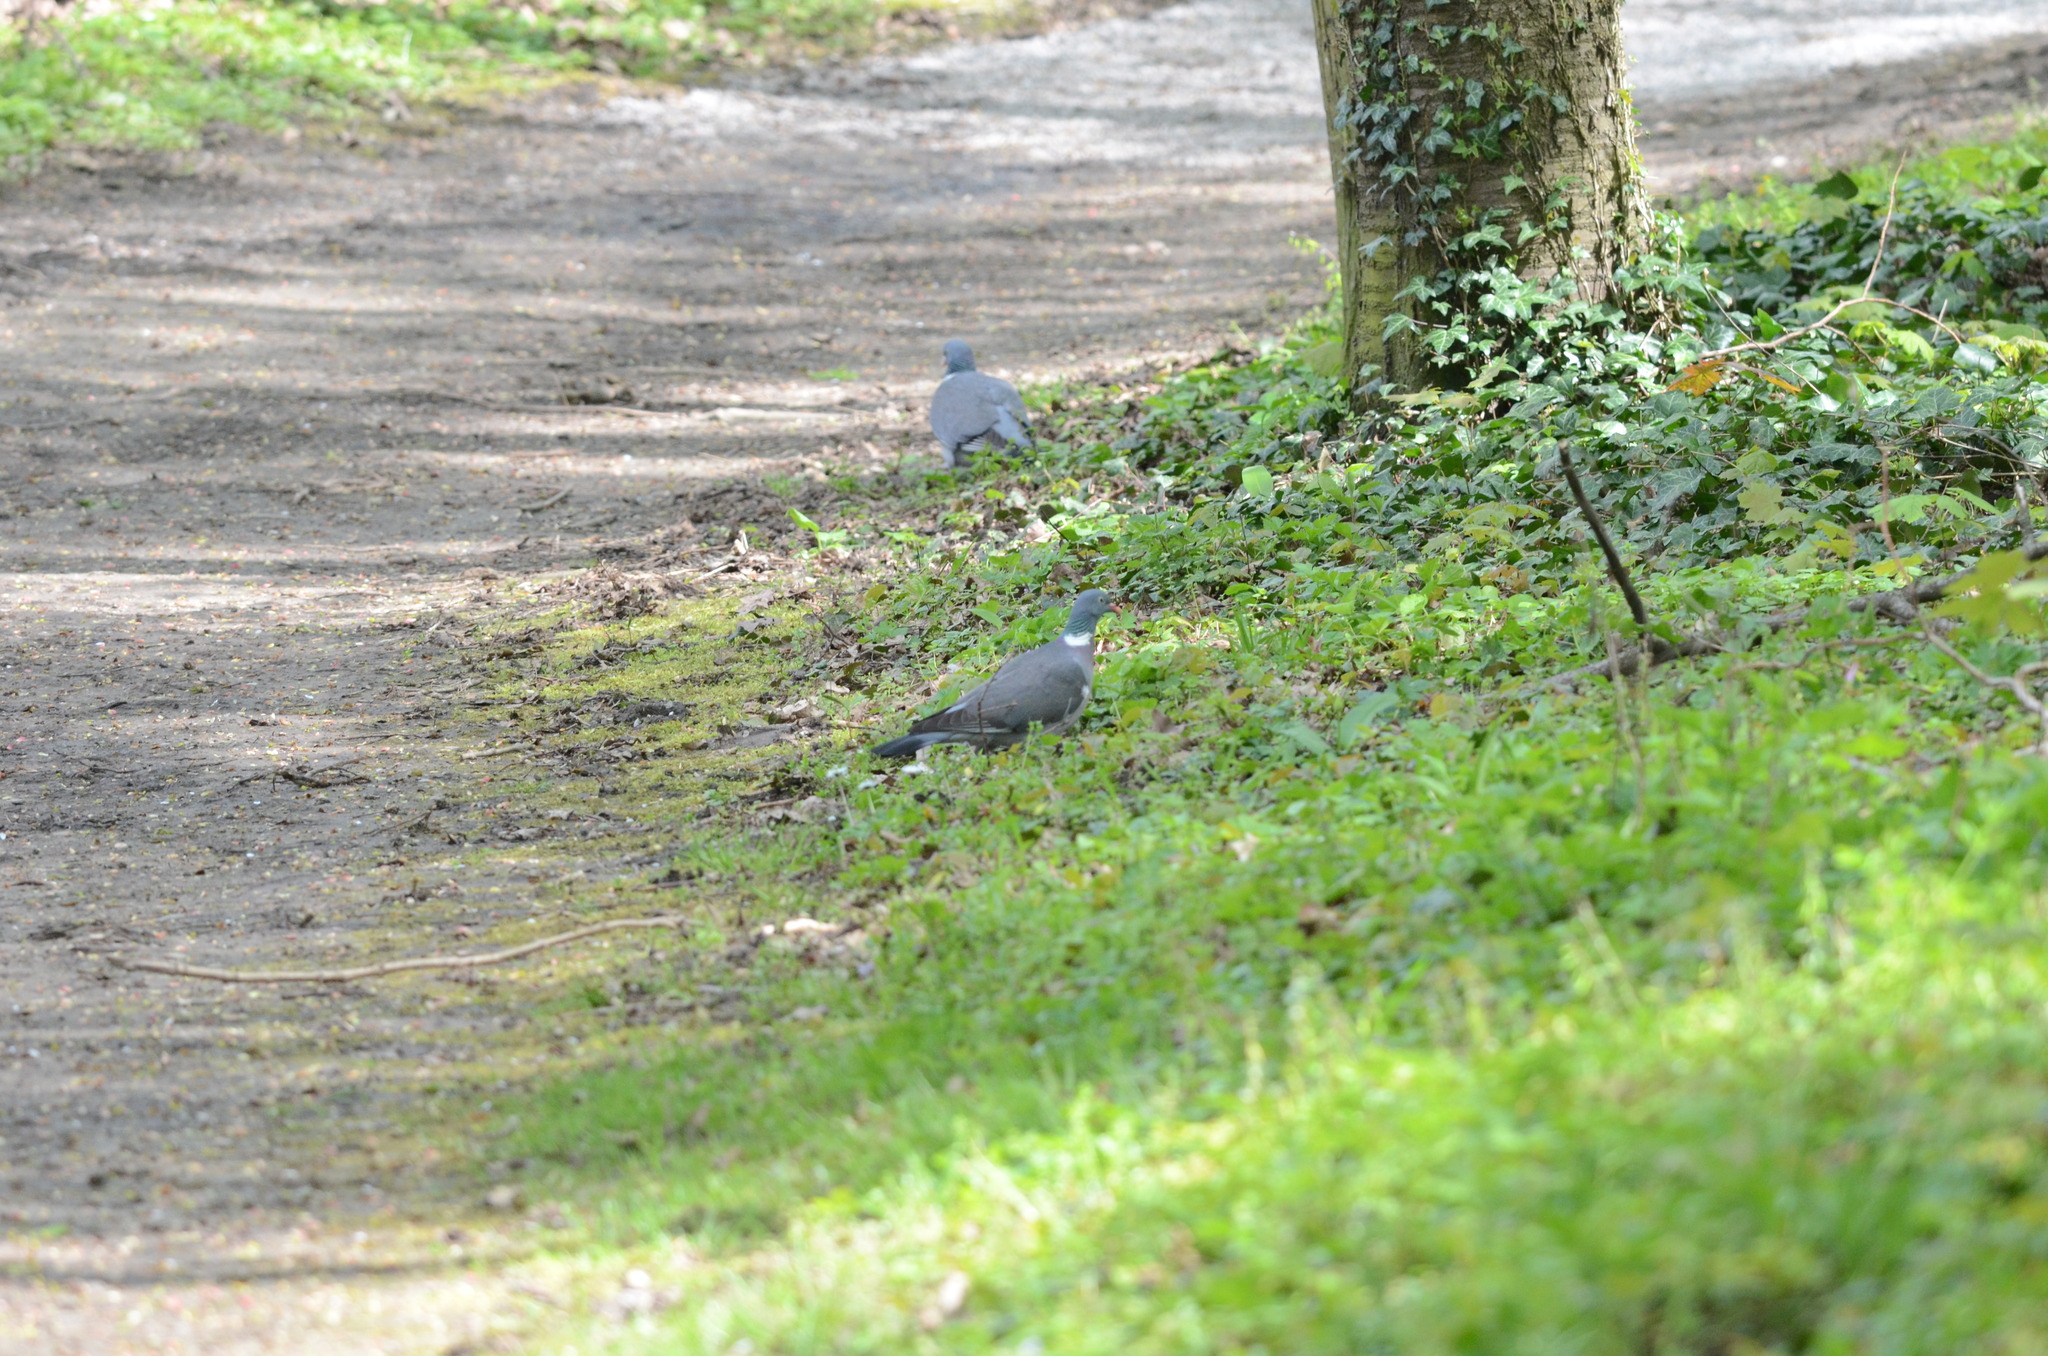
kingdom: Animalia
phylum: Chordata
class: Aves
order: Columbiformes
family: Columbidae
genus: Columba
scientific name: Columba palumbus
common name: Common wood pigeon
